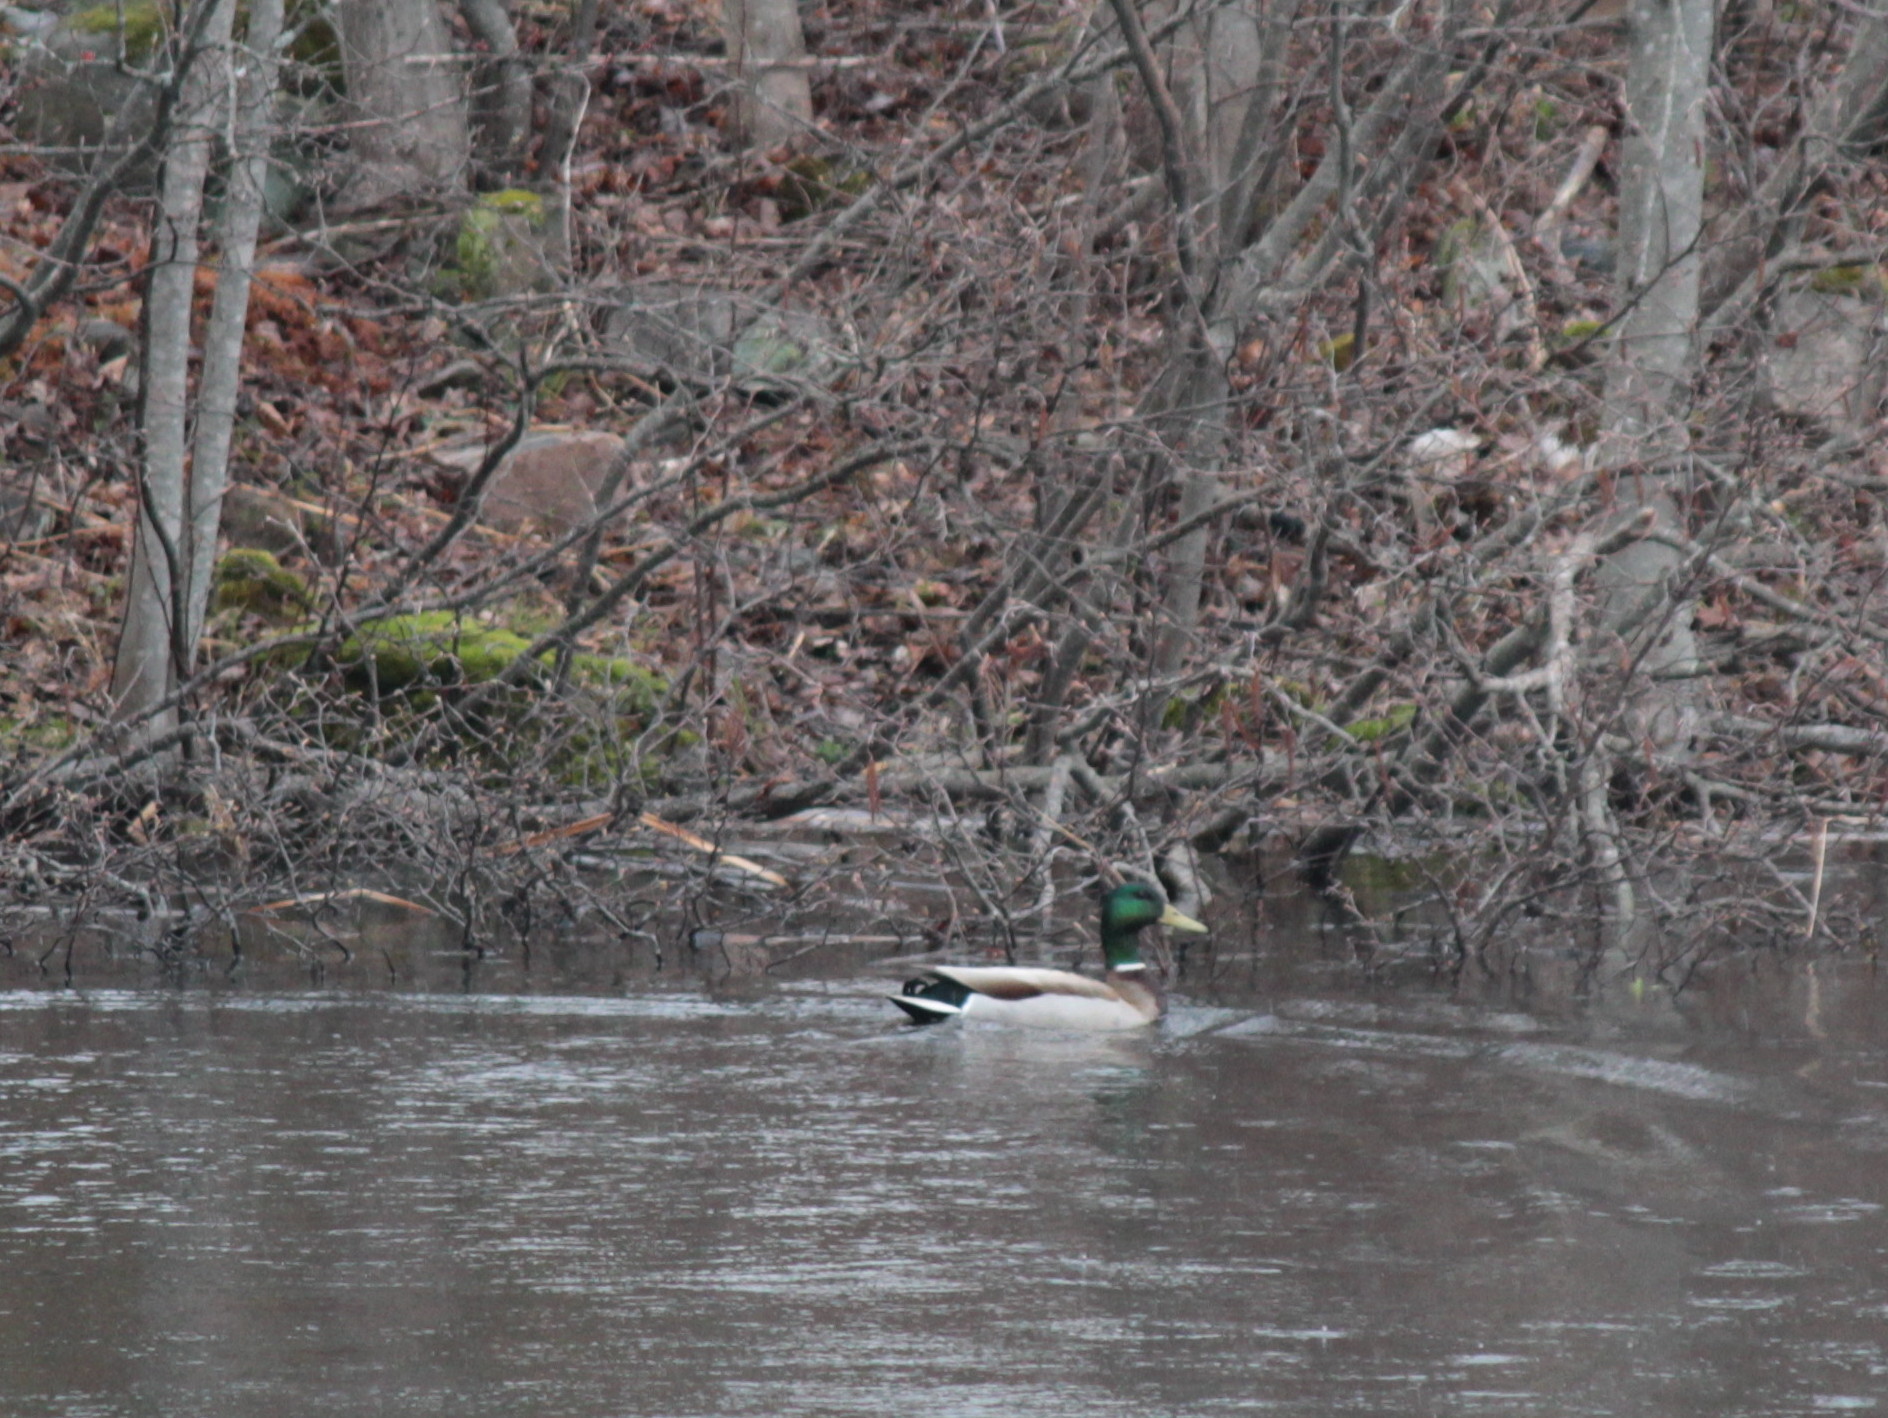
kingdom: Animalia
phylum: Chordata
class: Aves
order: Anseriformes
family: Anatidae
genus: Anas
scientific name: Anas platyrhynchos
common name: Mallard
